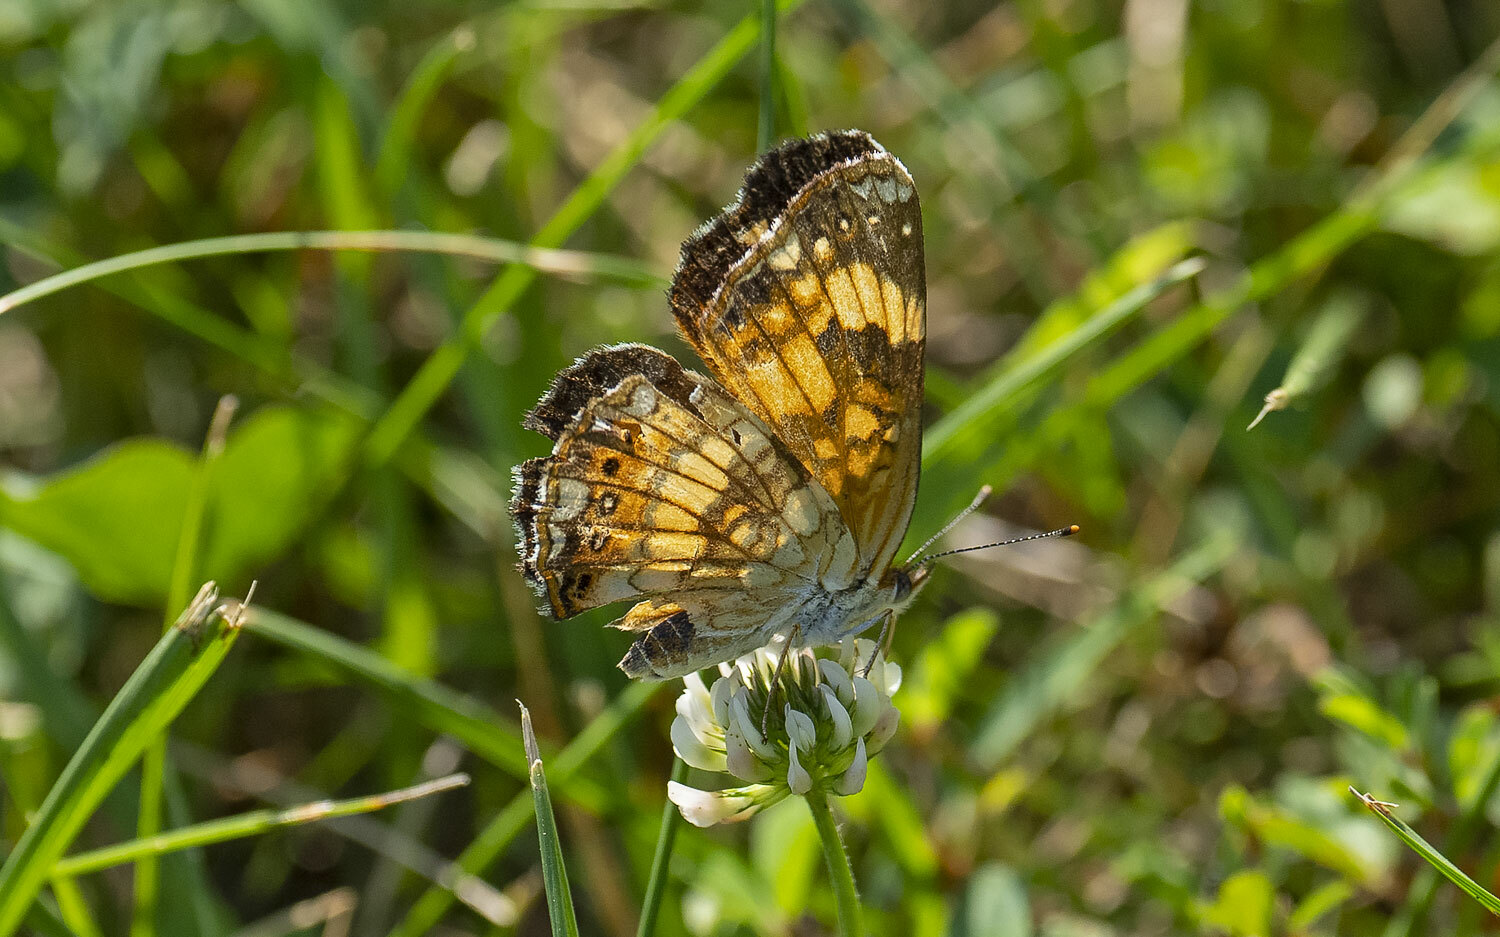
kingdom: Animalia
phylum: Arthropoda
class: Insecta
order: Lepidoptera
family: Nymphalidae
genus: Chlosyne
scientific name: Chlosyne nycteis
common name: Silvery checkerspot
